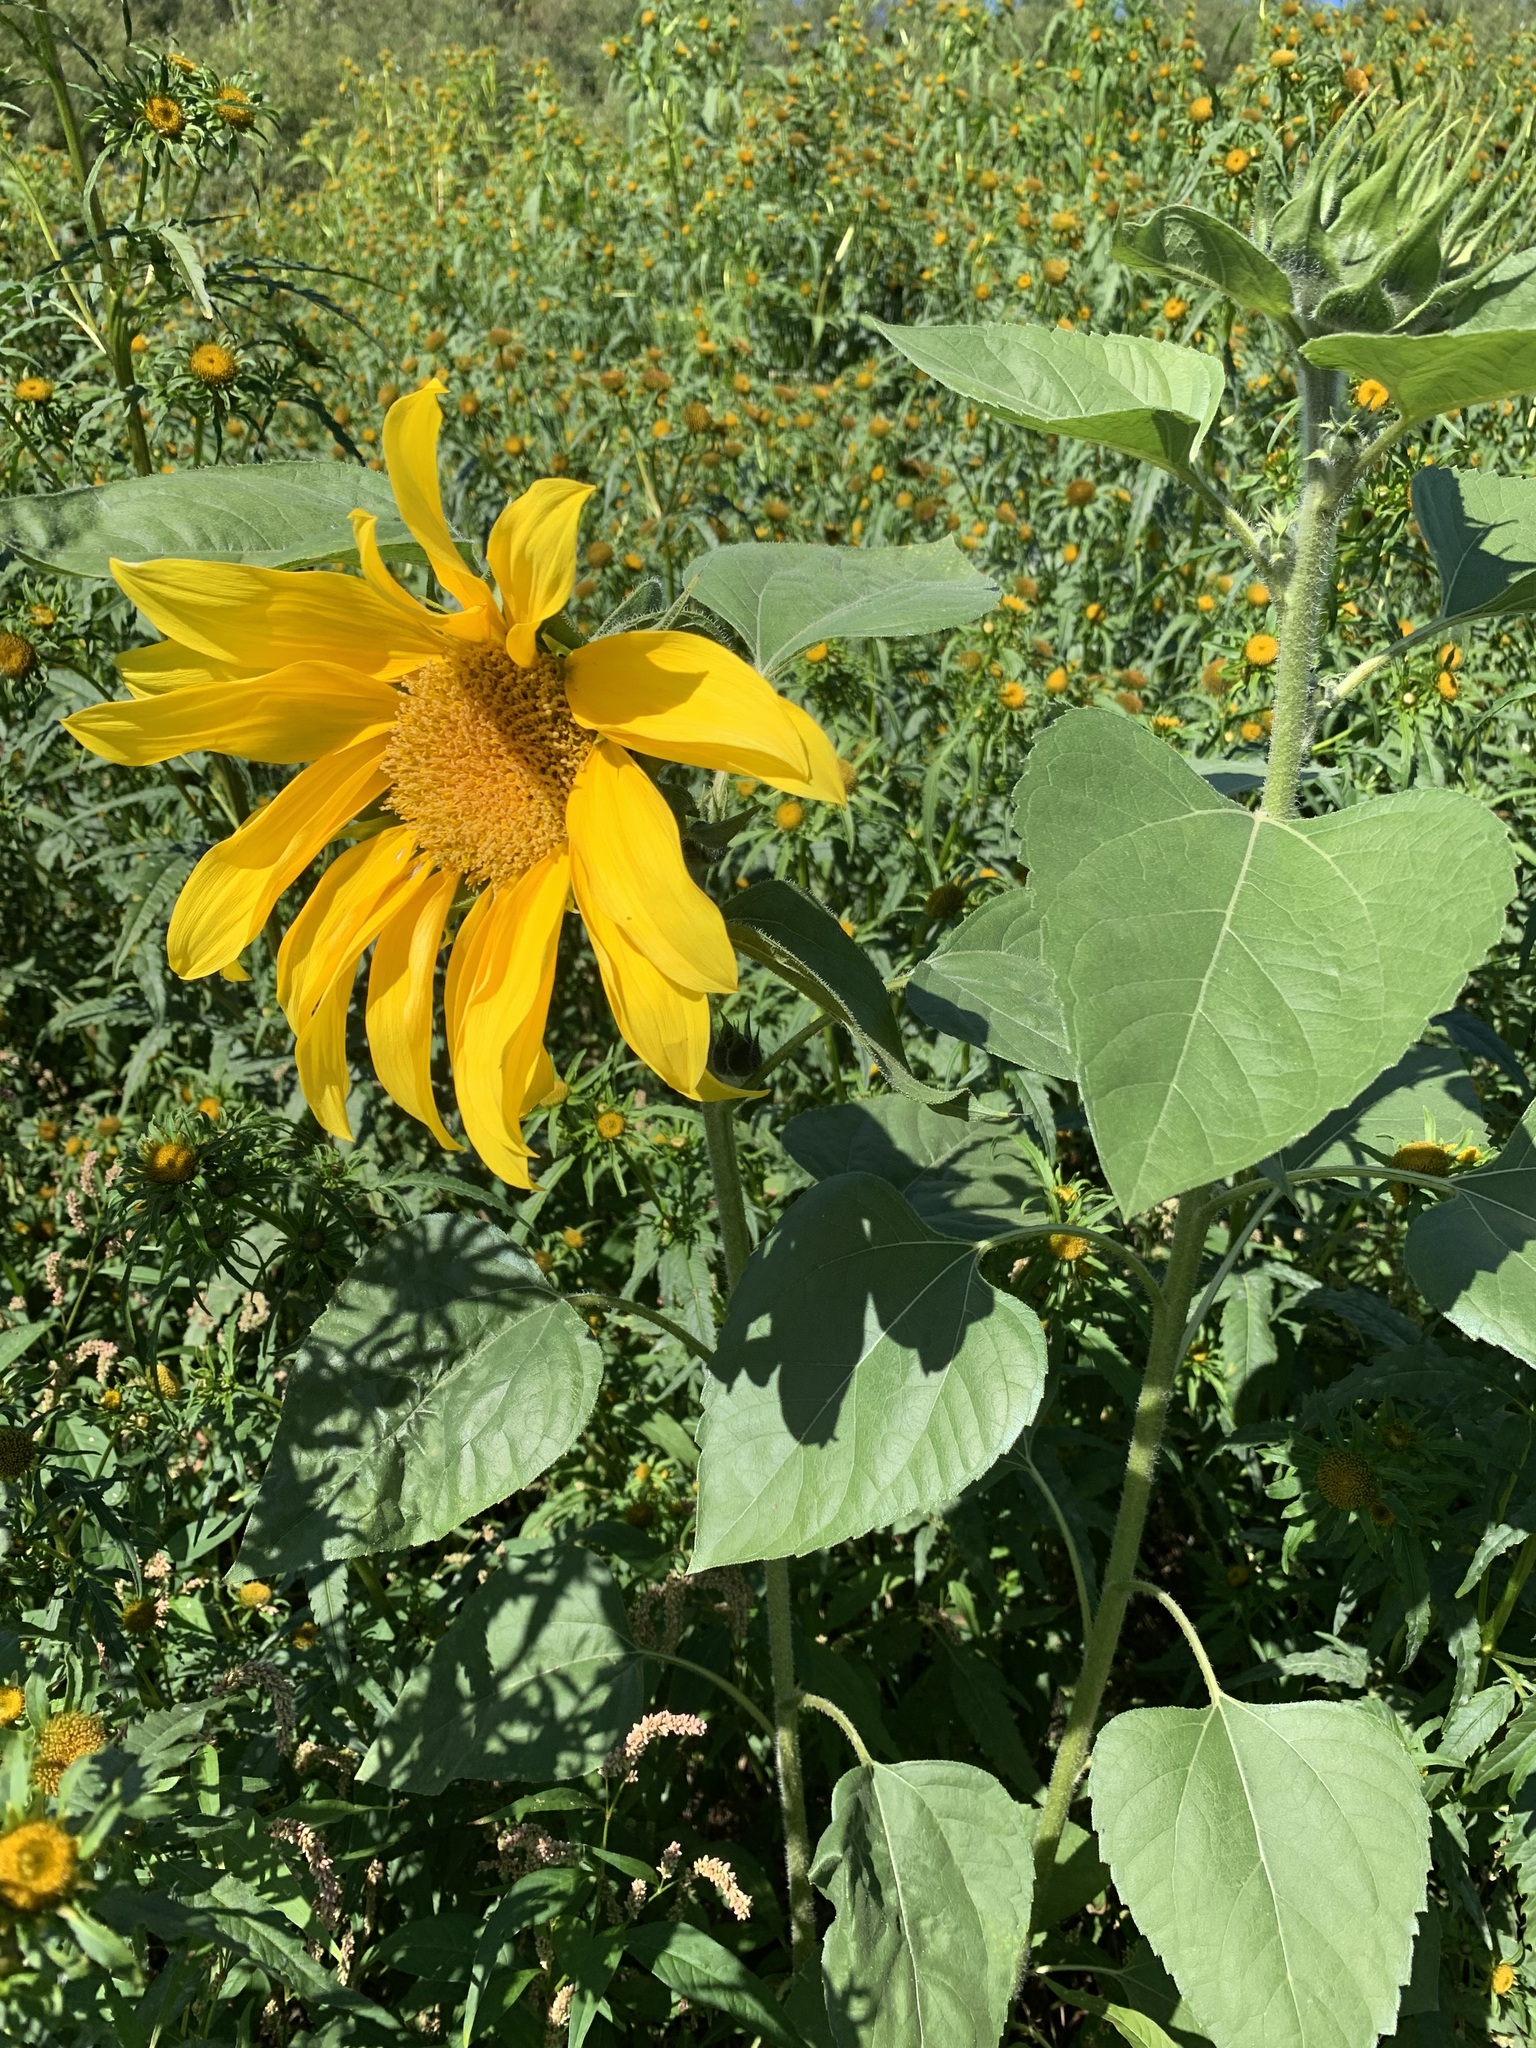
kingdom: Plantae
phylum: Tracheophyta
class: Magnoliopsida
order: Asterales
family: Asteraceae
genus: Helianthus
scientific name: Helianthus annuus
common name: Sunflower
